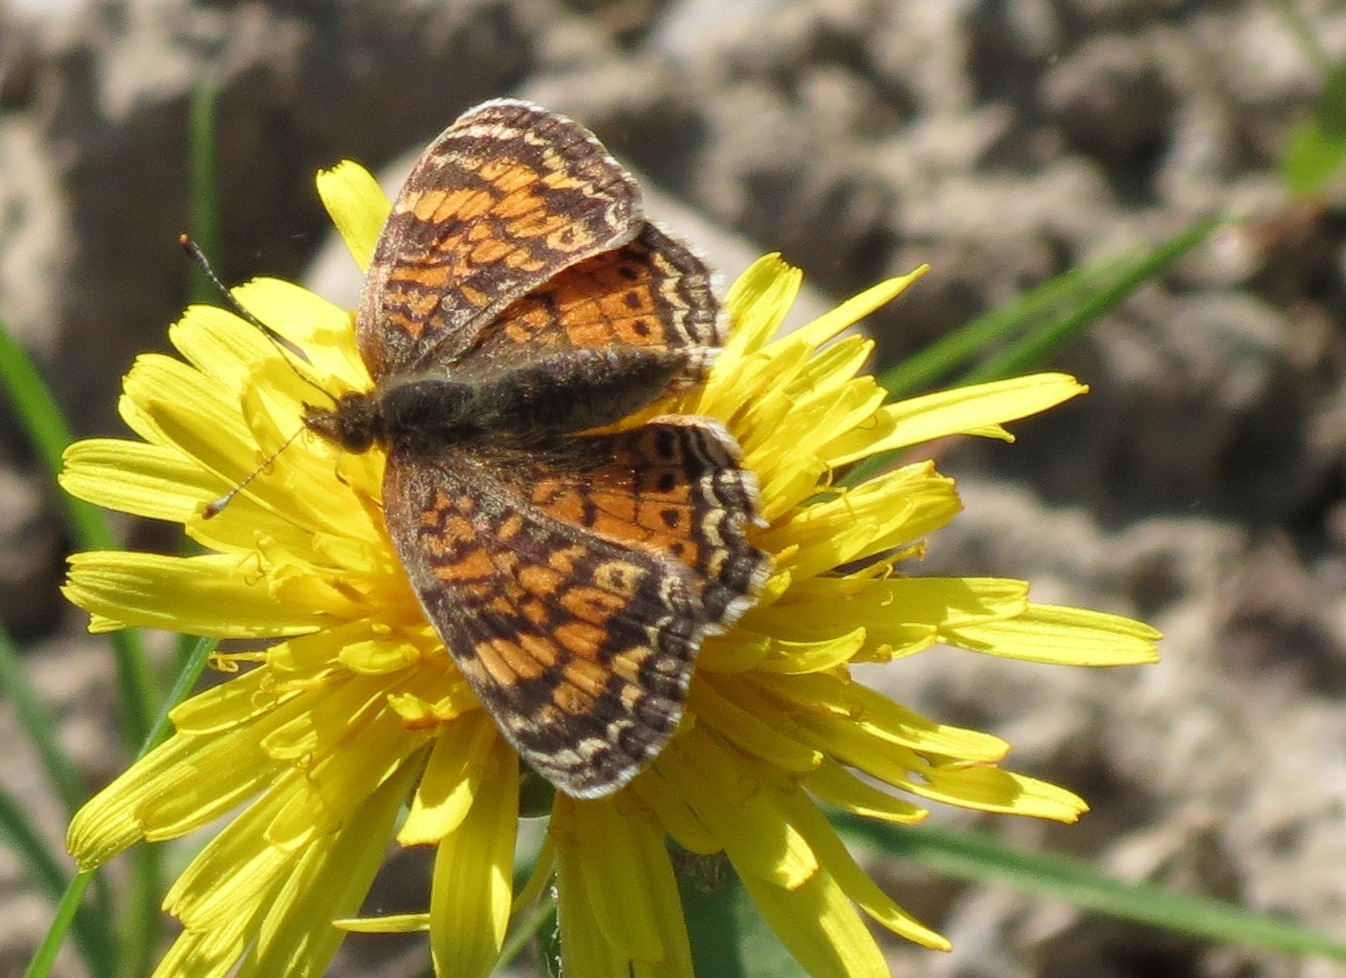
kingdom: Animalia
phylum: Arthropoda
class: Insecta
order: Lepidoptera
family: Nymphalidae
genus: Phyciodes
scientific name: Phyciodes tharos
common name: Pearl crescent
